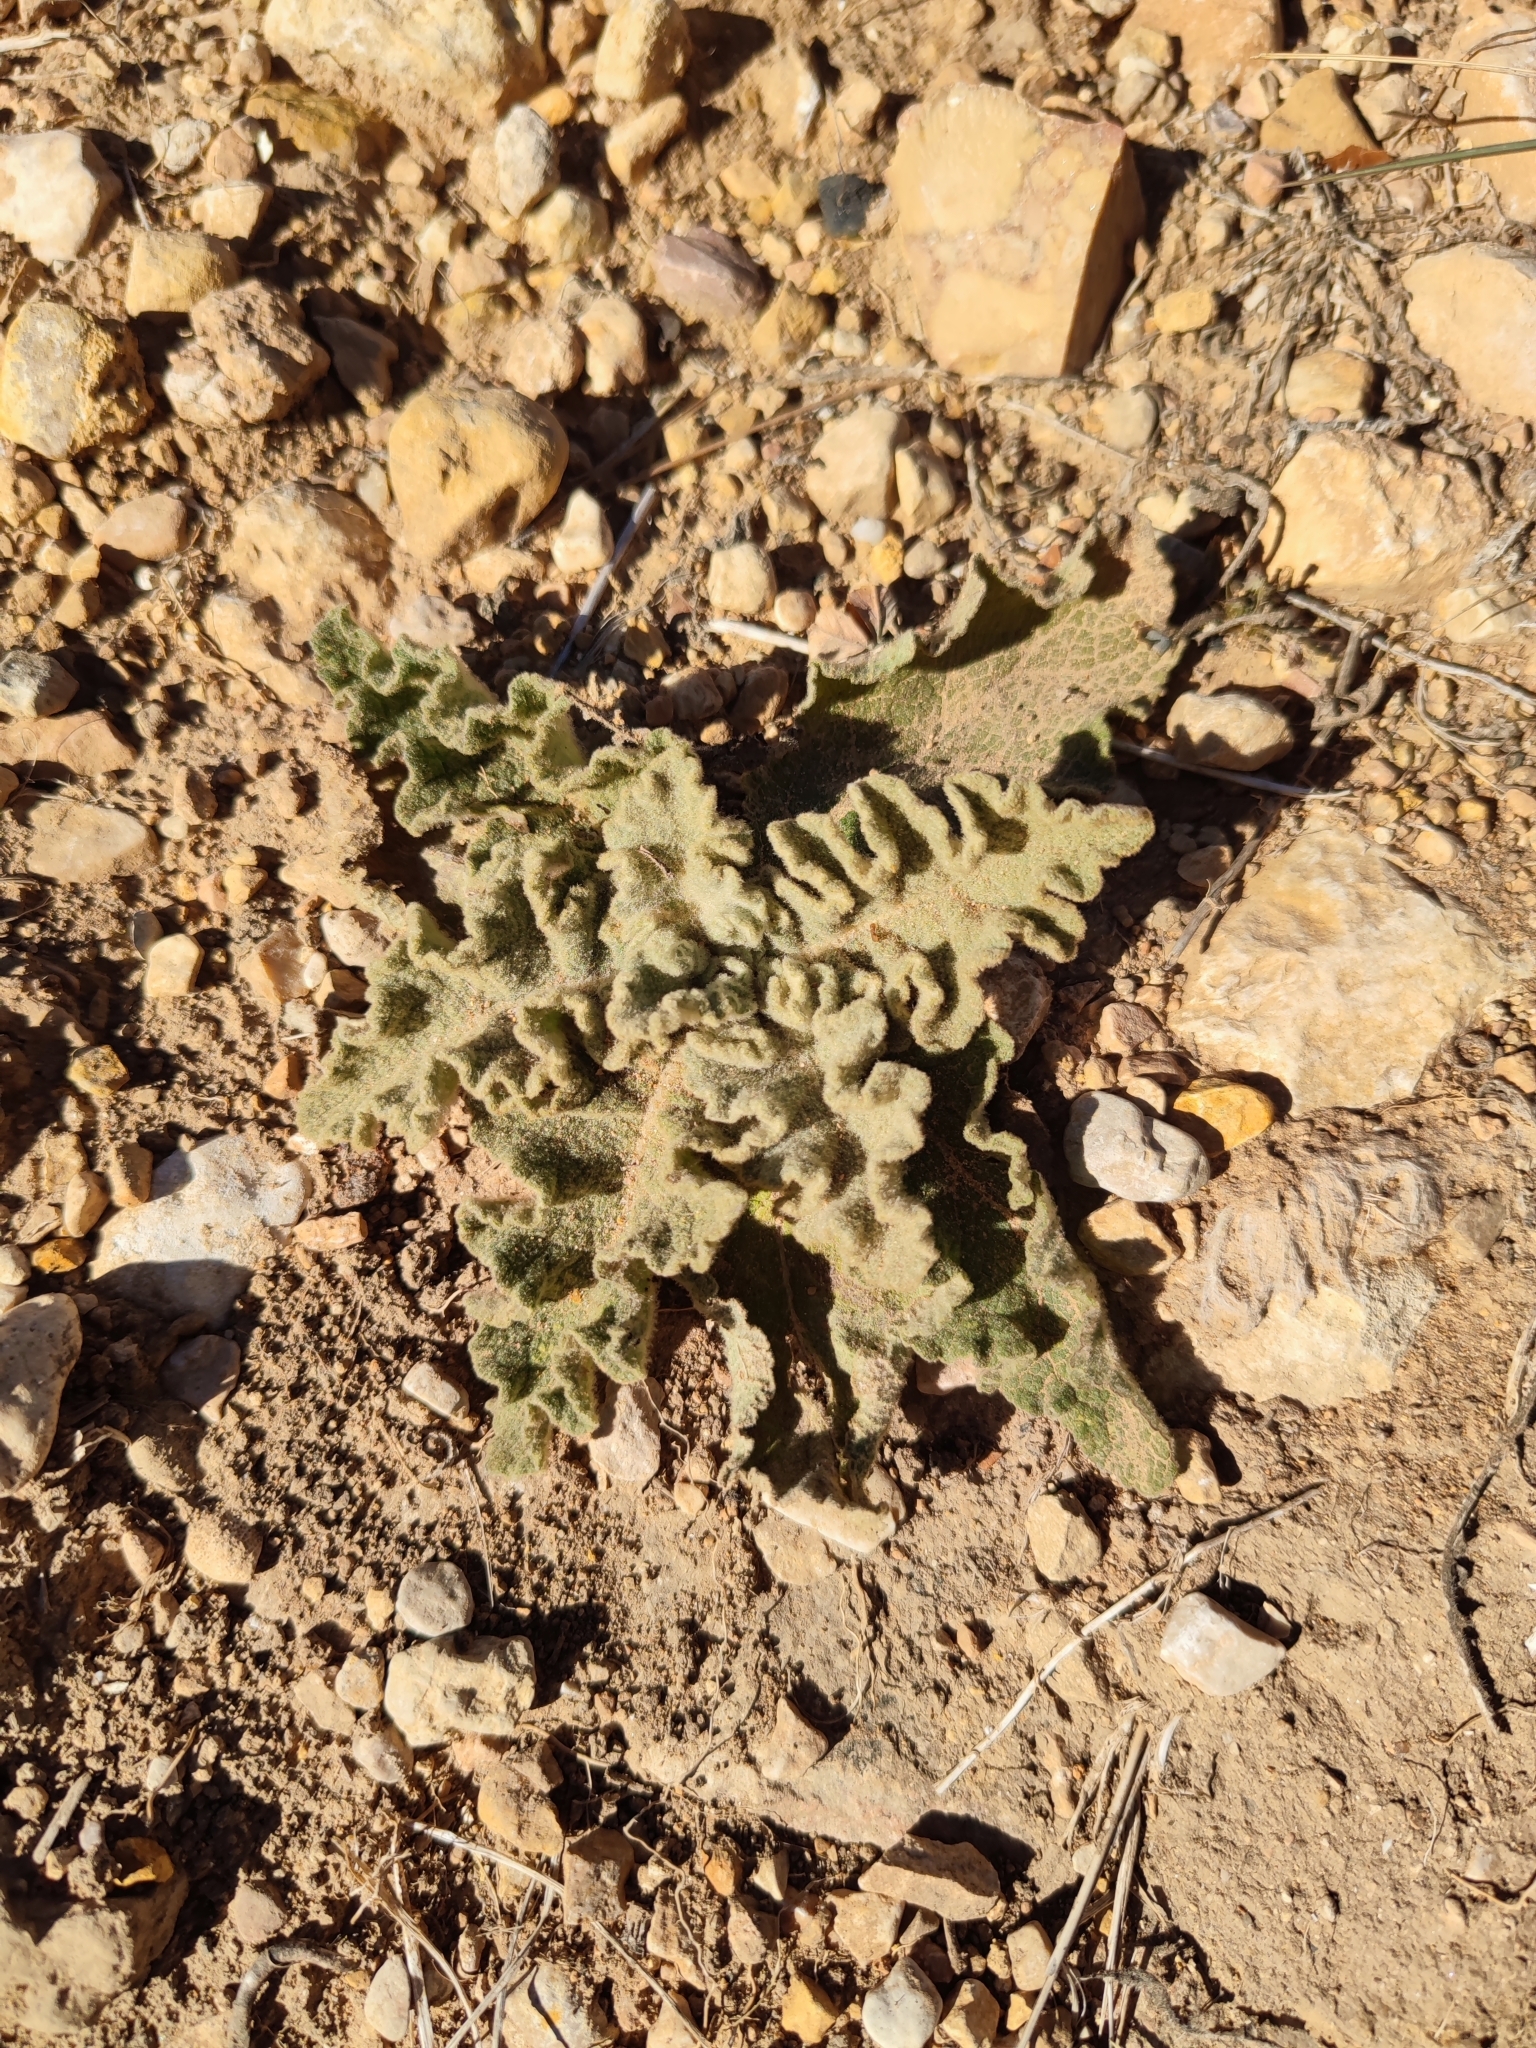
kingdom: Plantae
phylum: Tracheophyta
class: Magnoliopsida
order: Lamiales
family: Scrophulariaceae
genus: Verbascum
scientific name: Verbascum sinuatum
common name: Wavyleaf mullein
